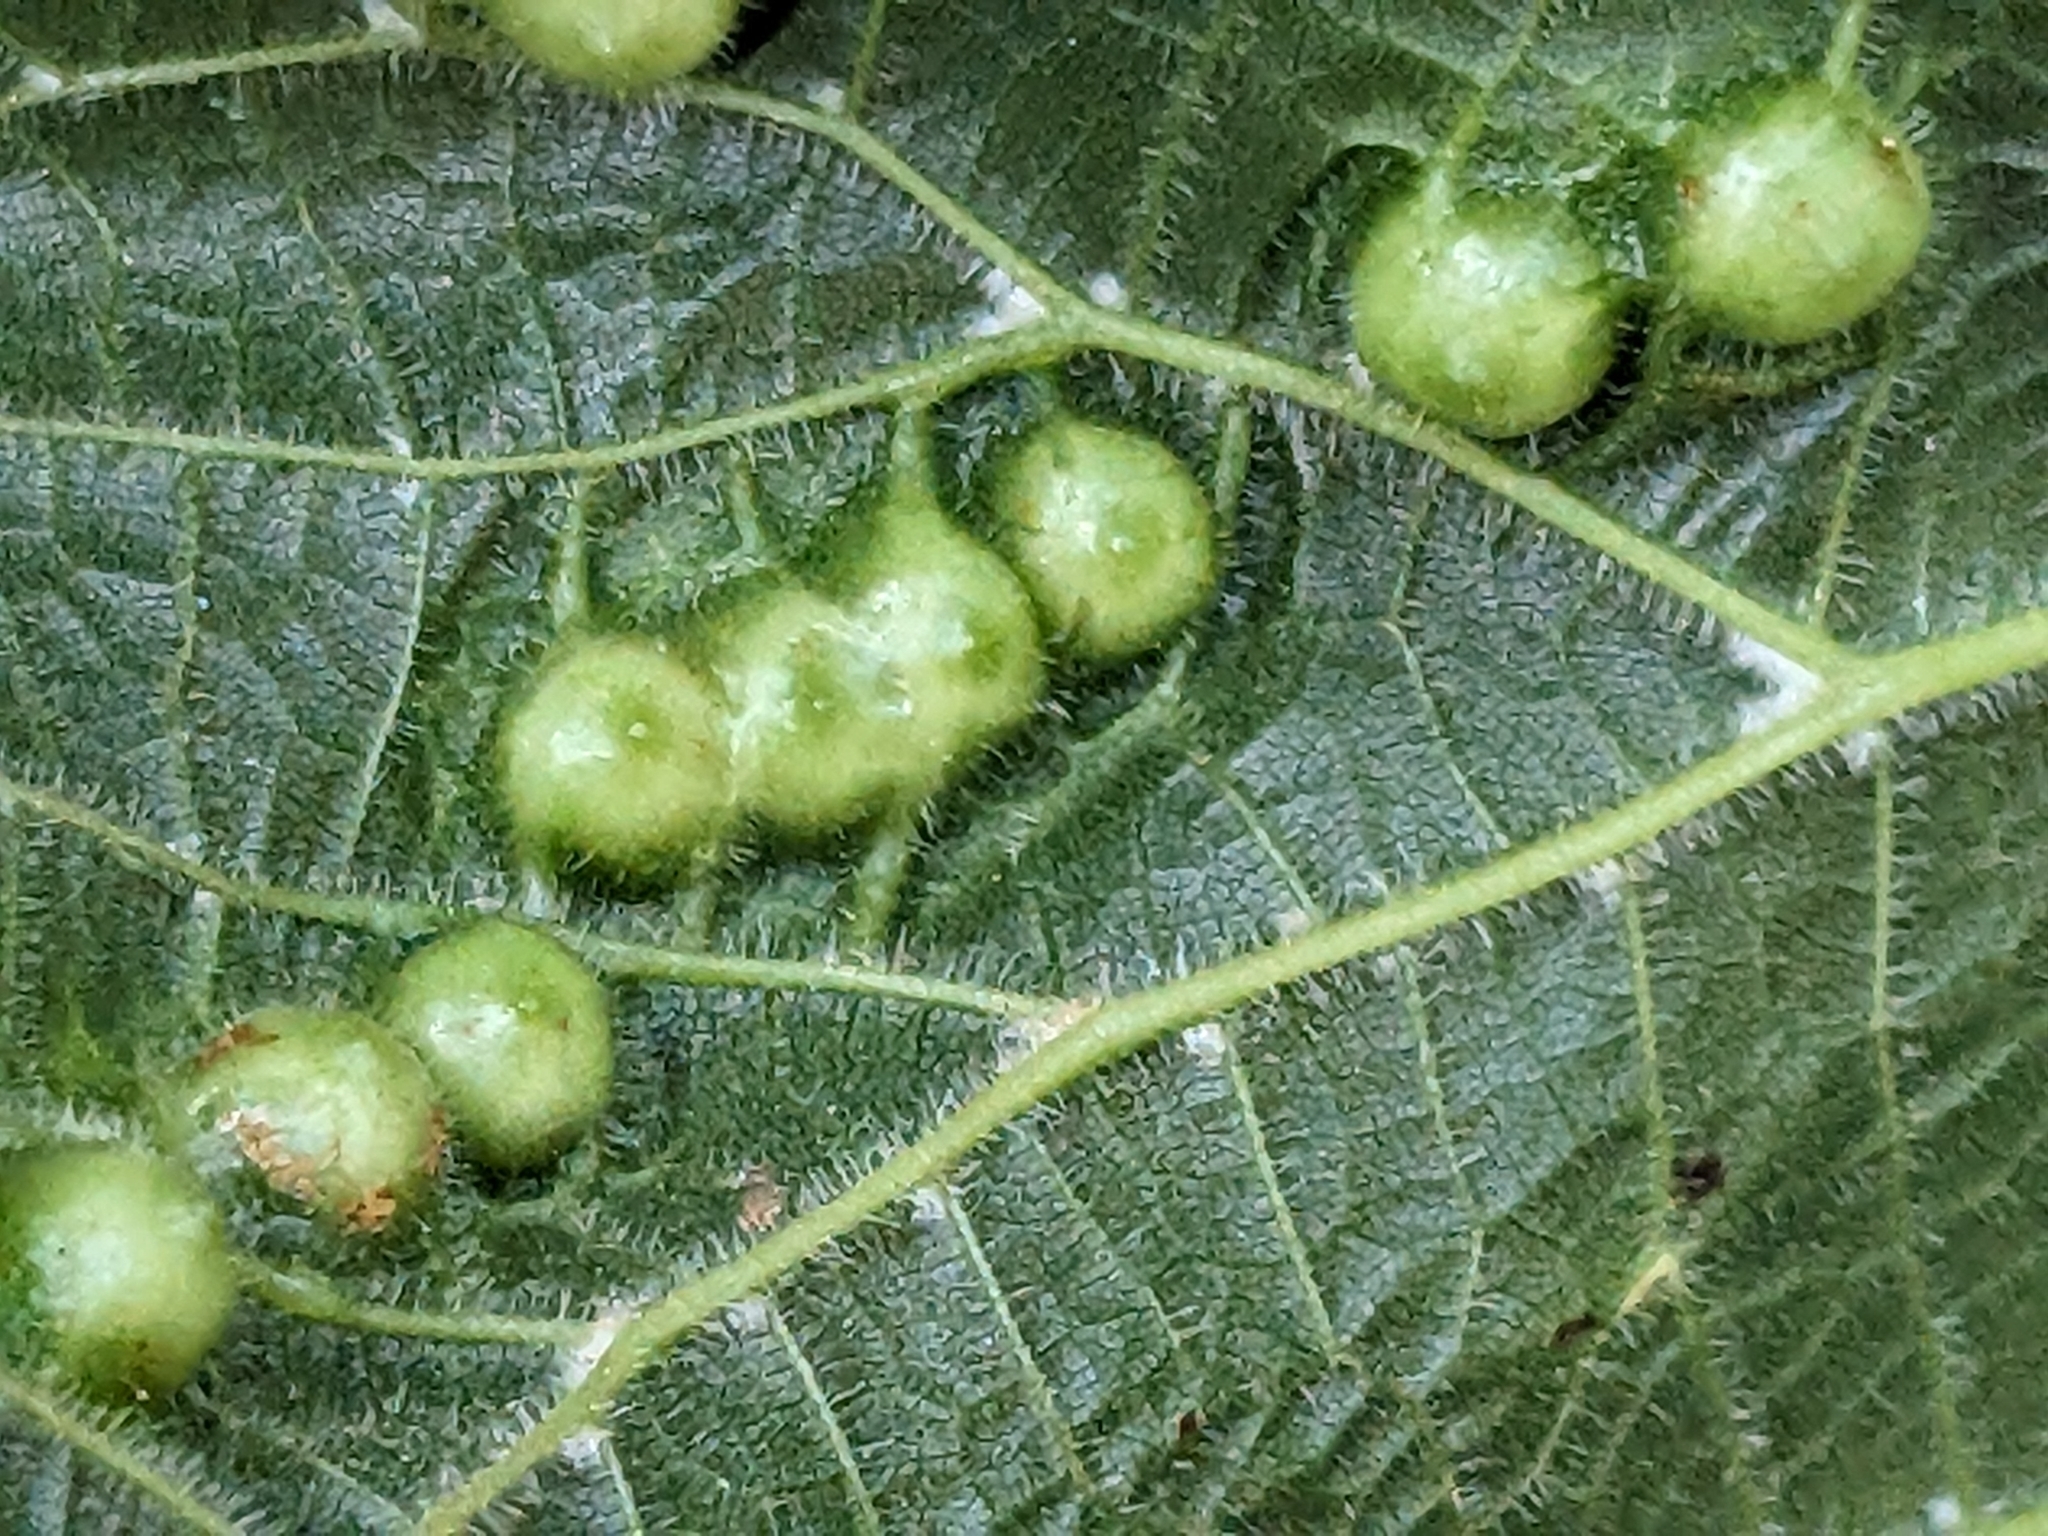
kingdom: Animalia
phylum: Arthropoda
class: Insecta
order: Diptera
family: Cecidomyiidae
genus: Didymomyia
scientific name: Didymomyia tiliacea
